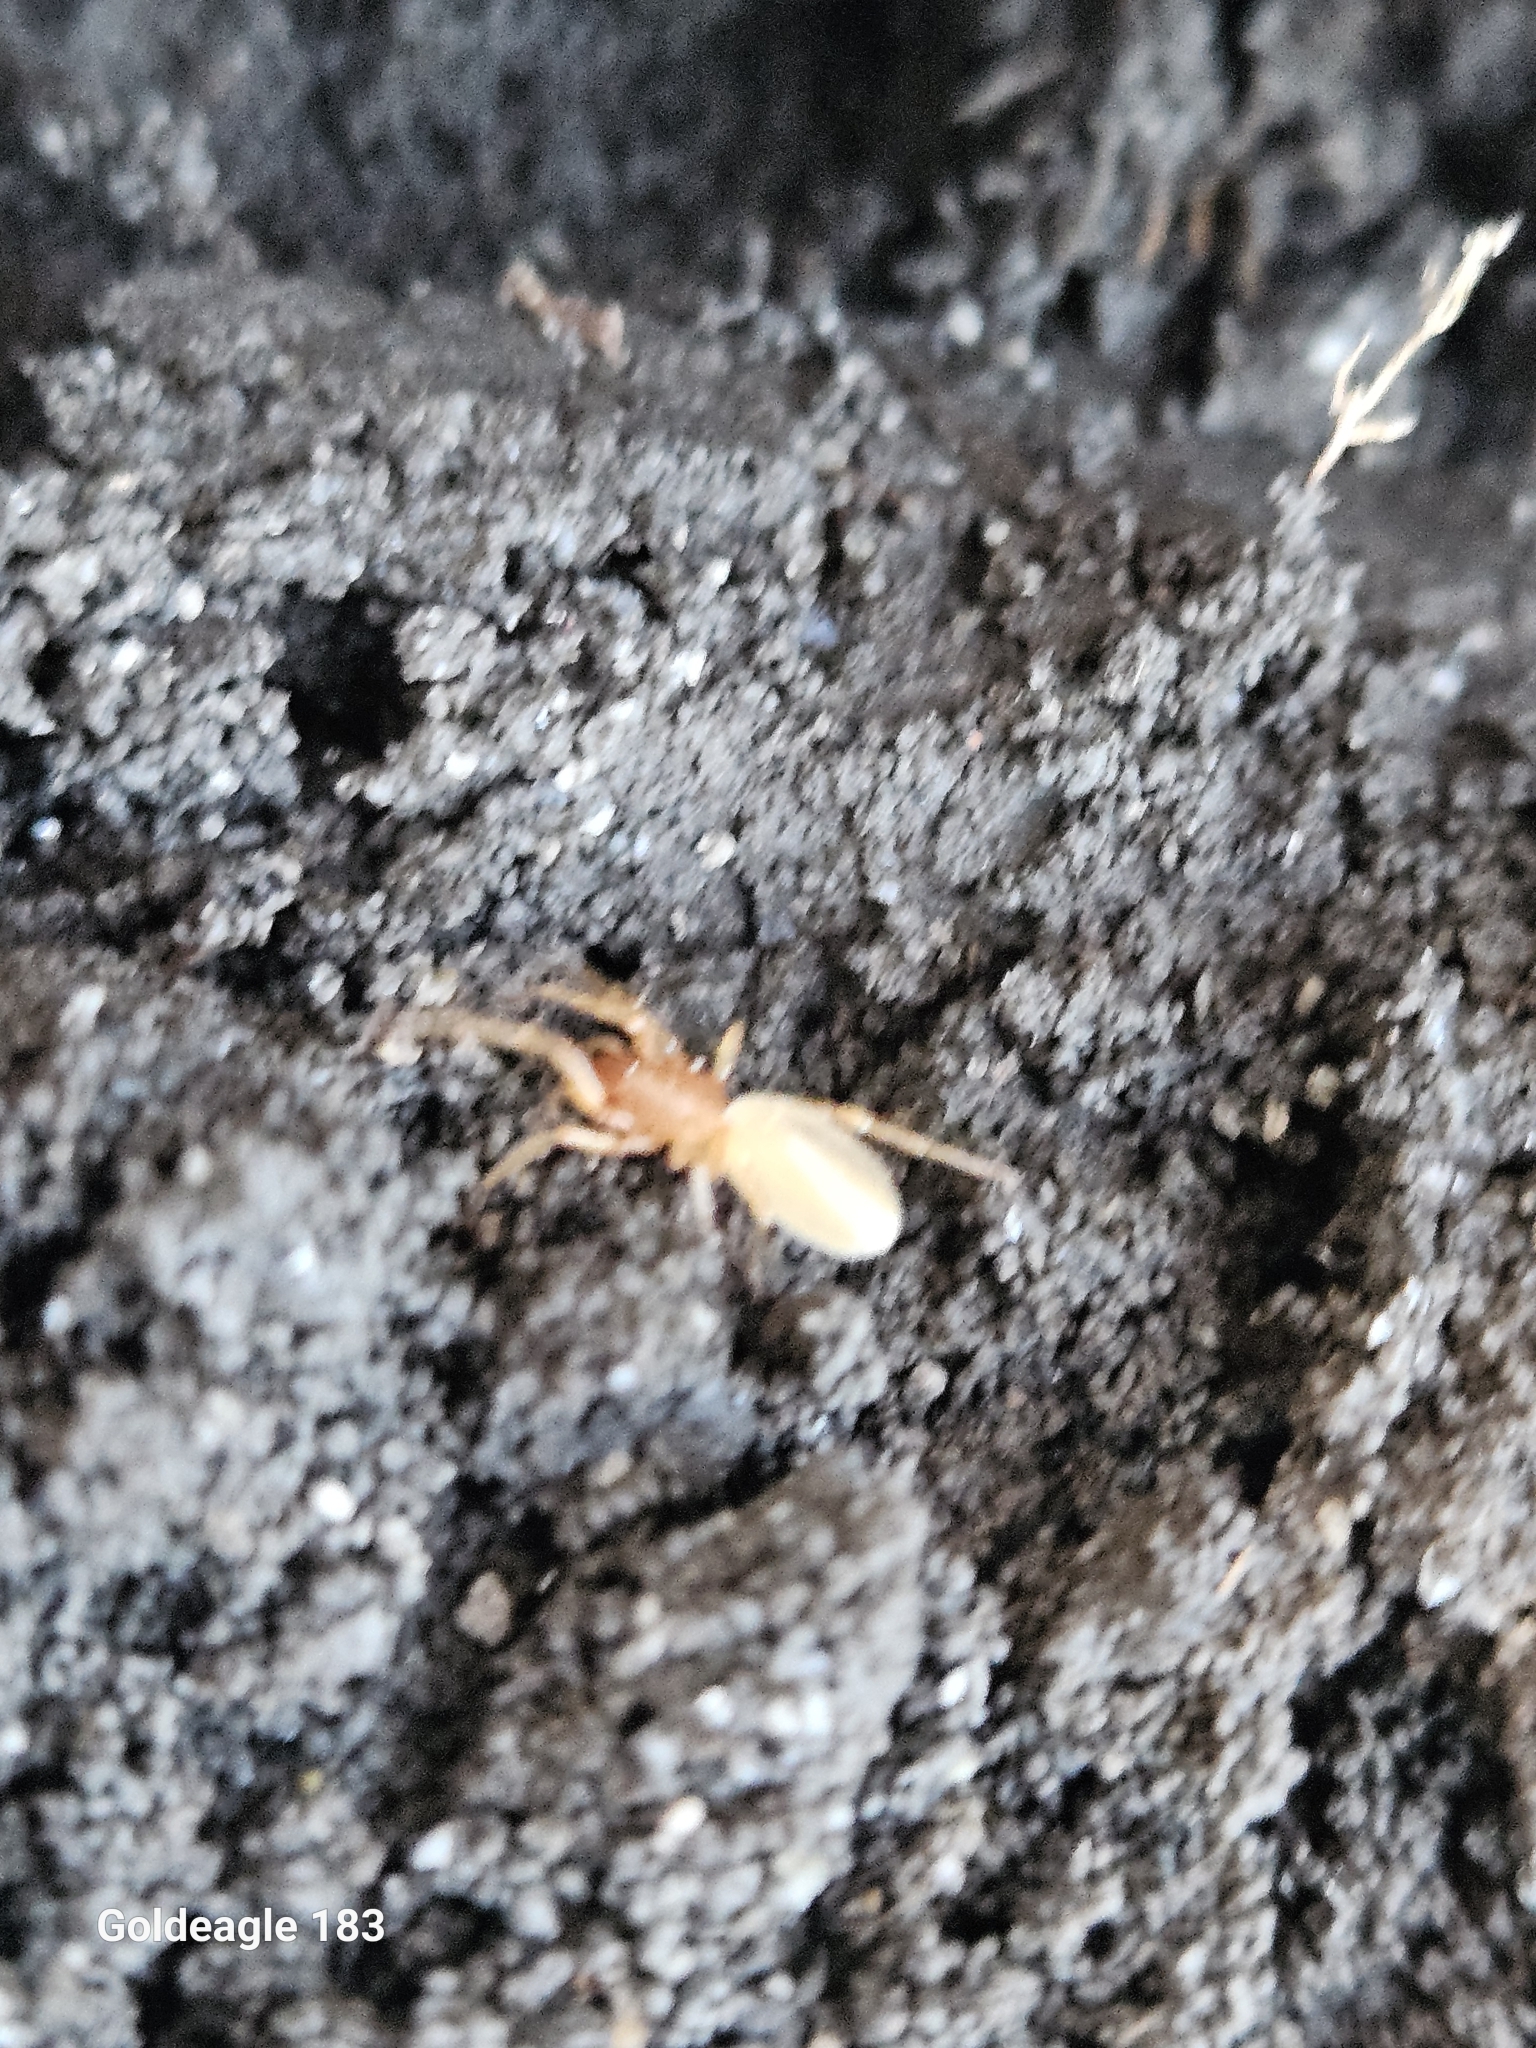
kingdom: Animalia
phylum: Arthropoda
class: Arachnida
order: Araneae
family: Dysderidae
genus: Dysdera
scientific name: Dysdera crocata
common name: Woodlouse spider
